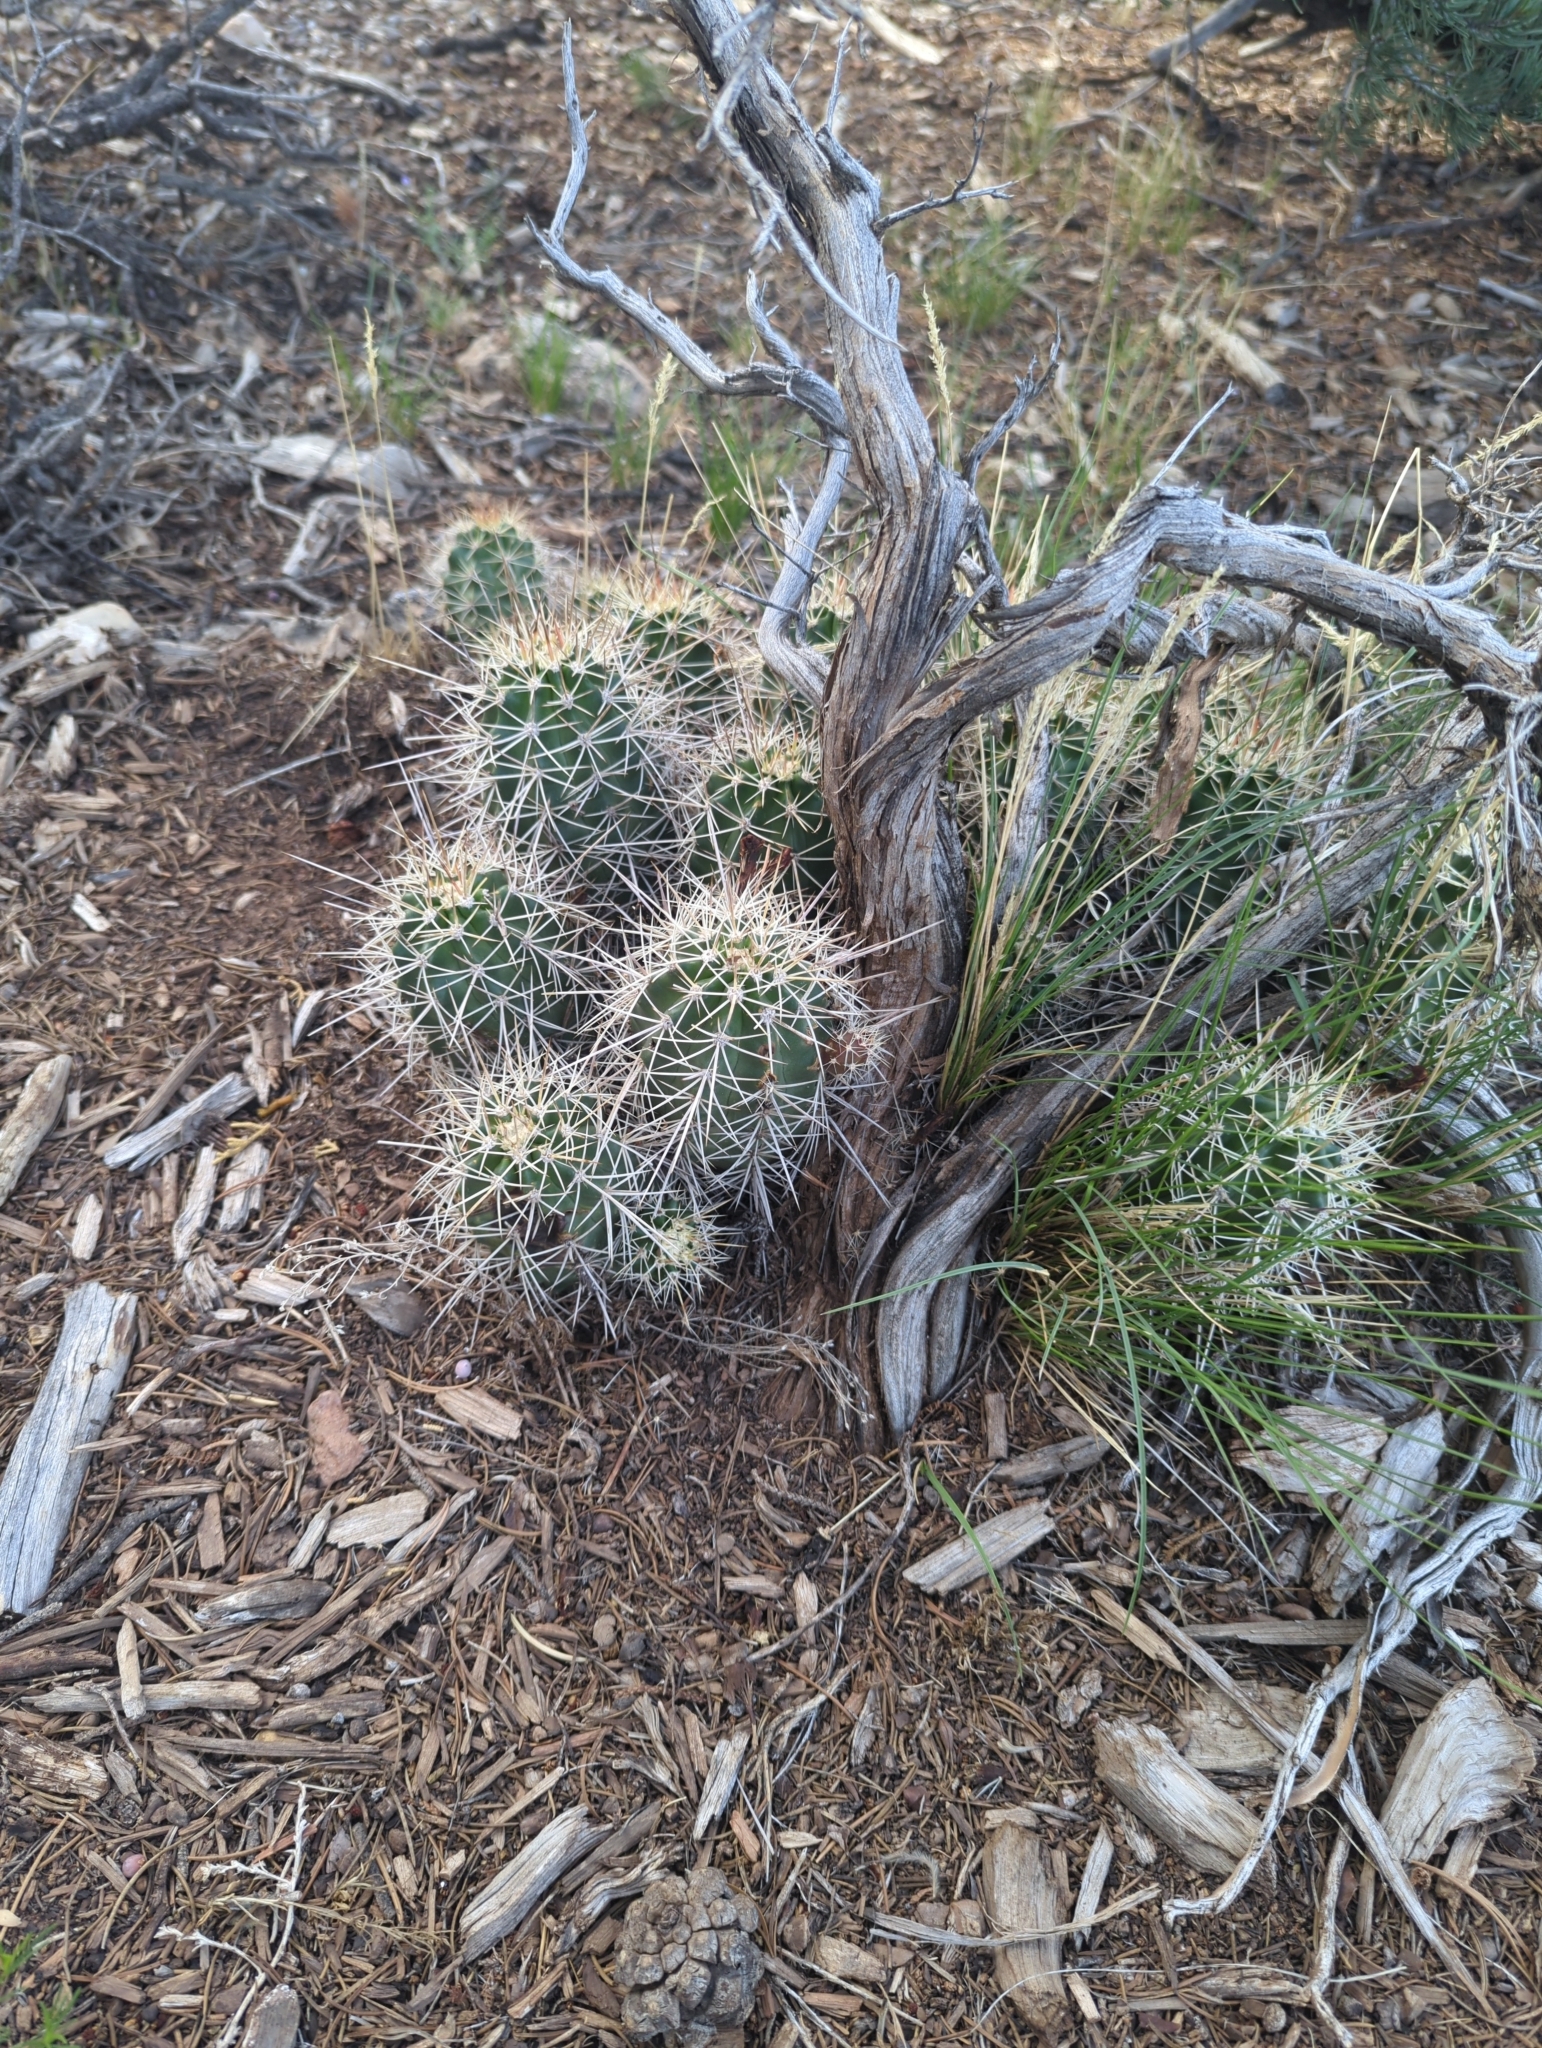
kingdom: Plantae
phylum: Tracheophyta
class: Magnoliopsida
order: Caryophyllales
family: Cactaceae
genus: Echinocereus
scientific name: Echinocereus triglochidiatus
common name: Claretcup hedgehog
